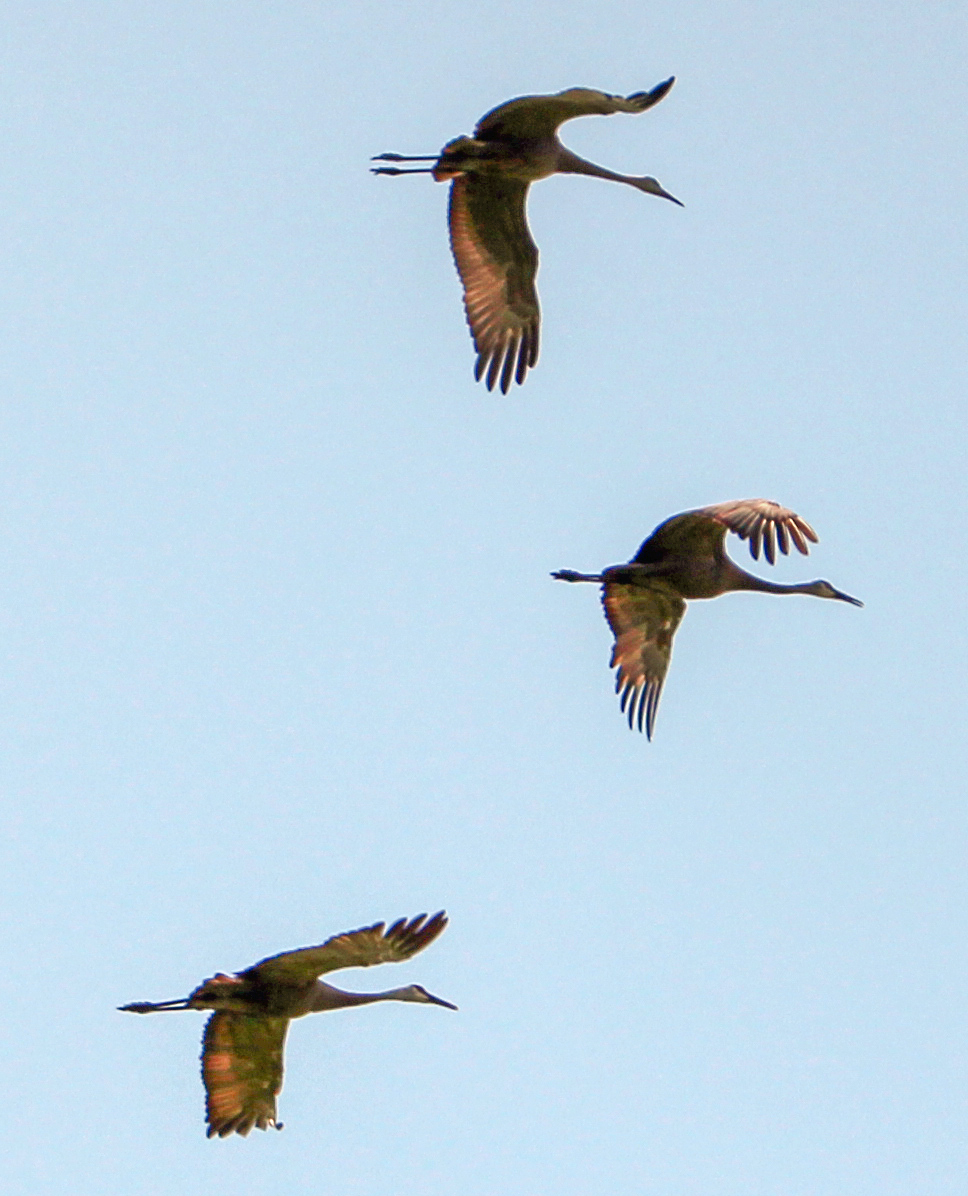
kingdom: Animalia
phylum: Chordata
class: Aves
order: Gruiformes
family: Gruidae
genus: Grus
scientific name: Grus canadensis
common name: Sandhill crane
